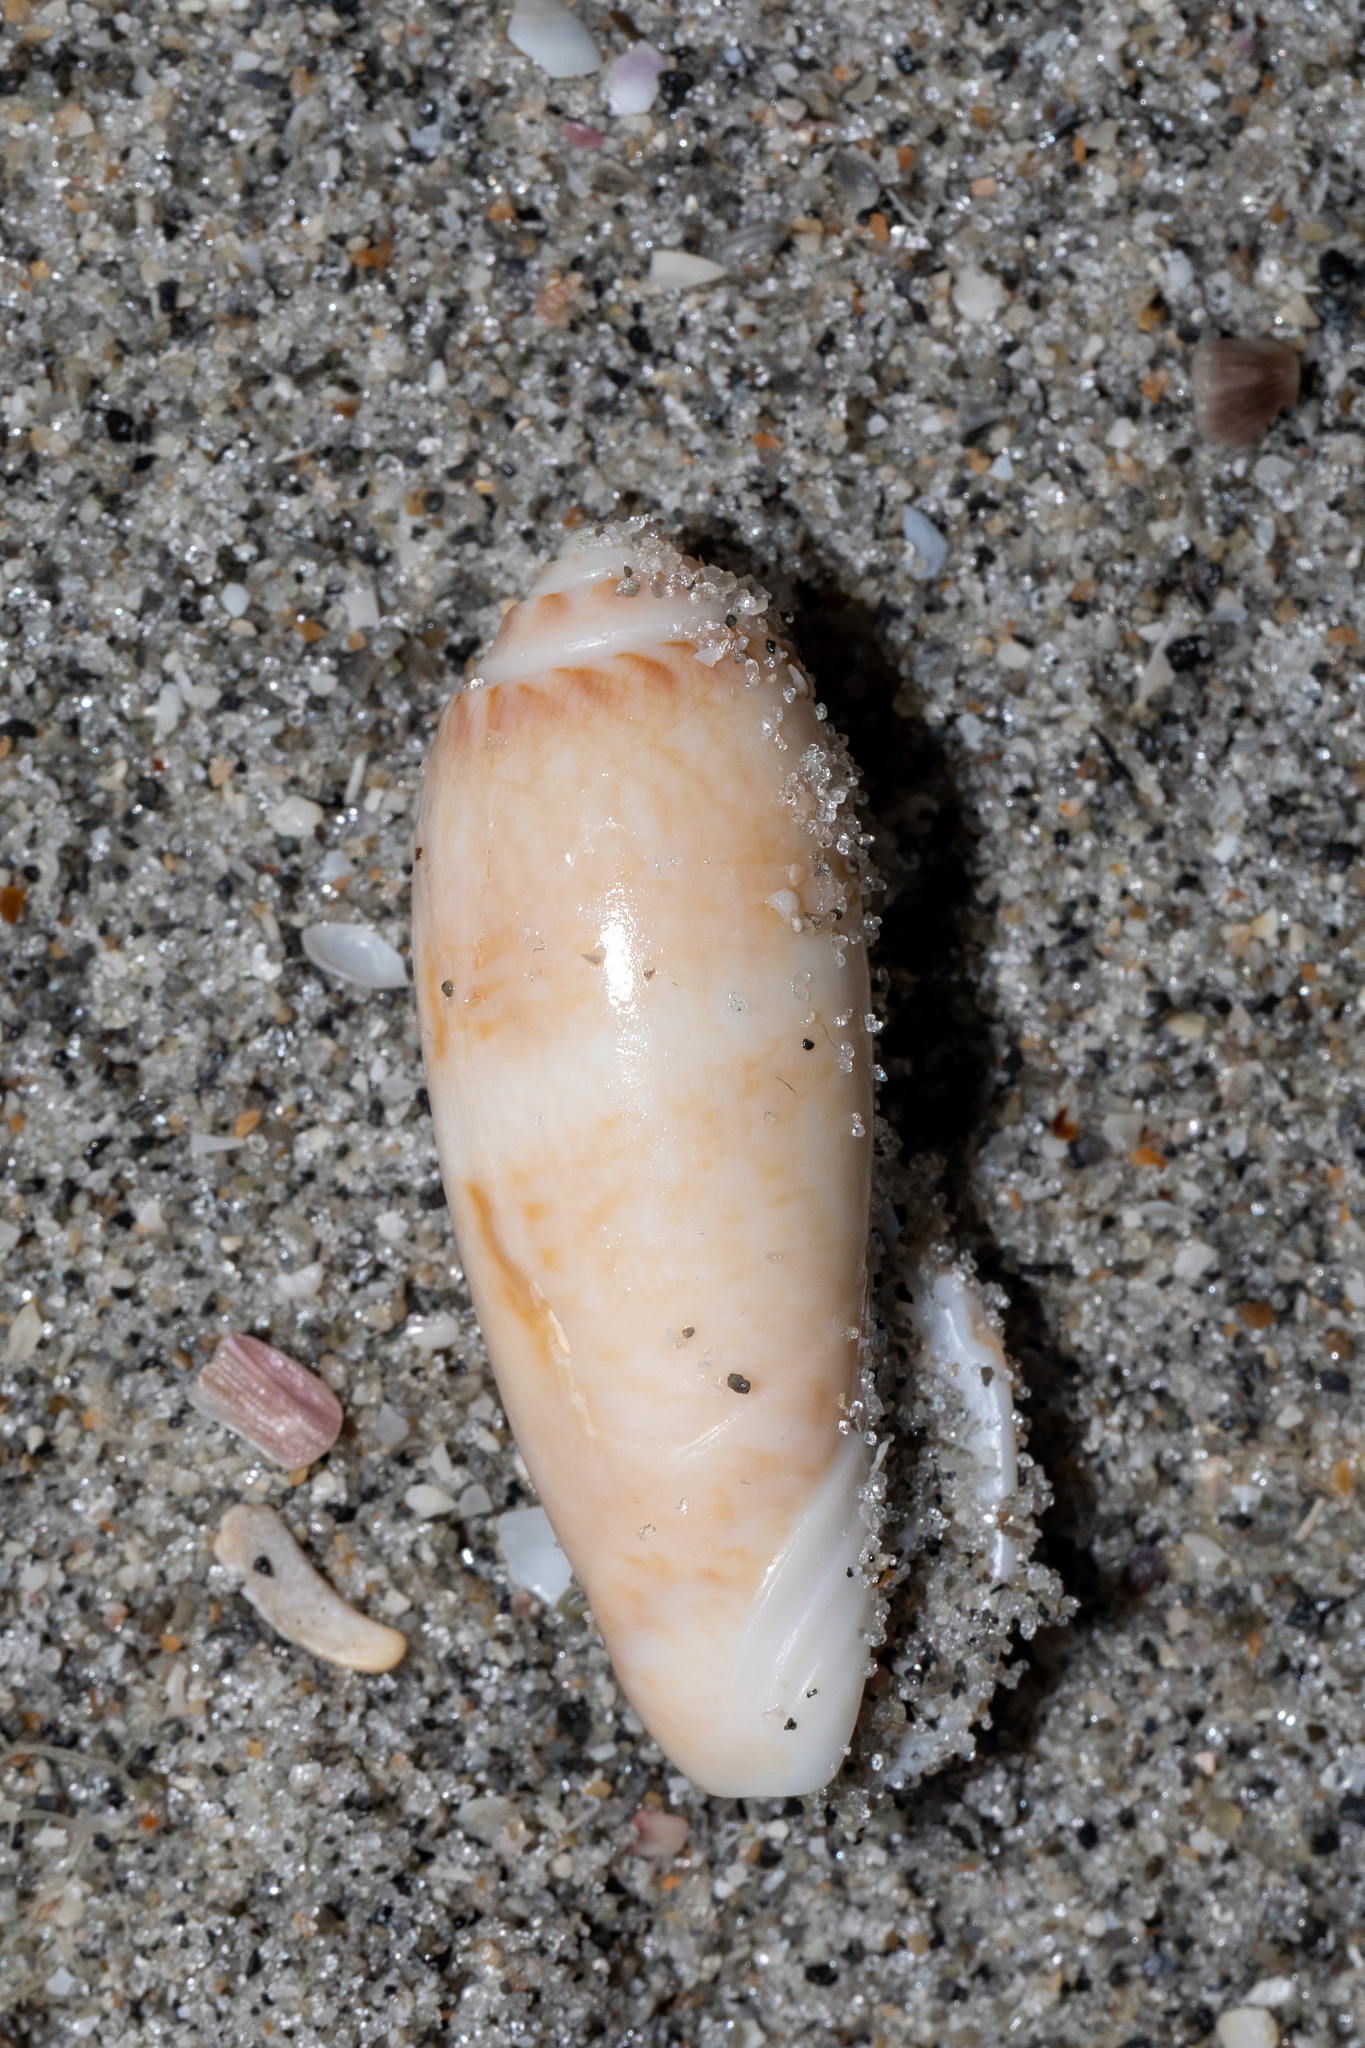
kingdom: Animalia
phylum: Mollusca
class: Gastropoda
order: Neogastropoda
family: Olividae
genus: Oliva
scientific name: Oliva sayana
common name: Lettered olive
